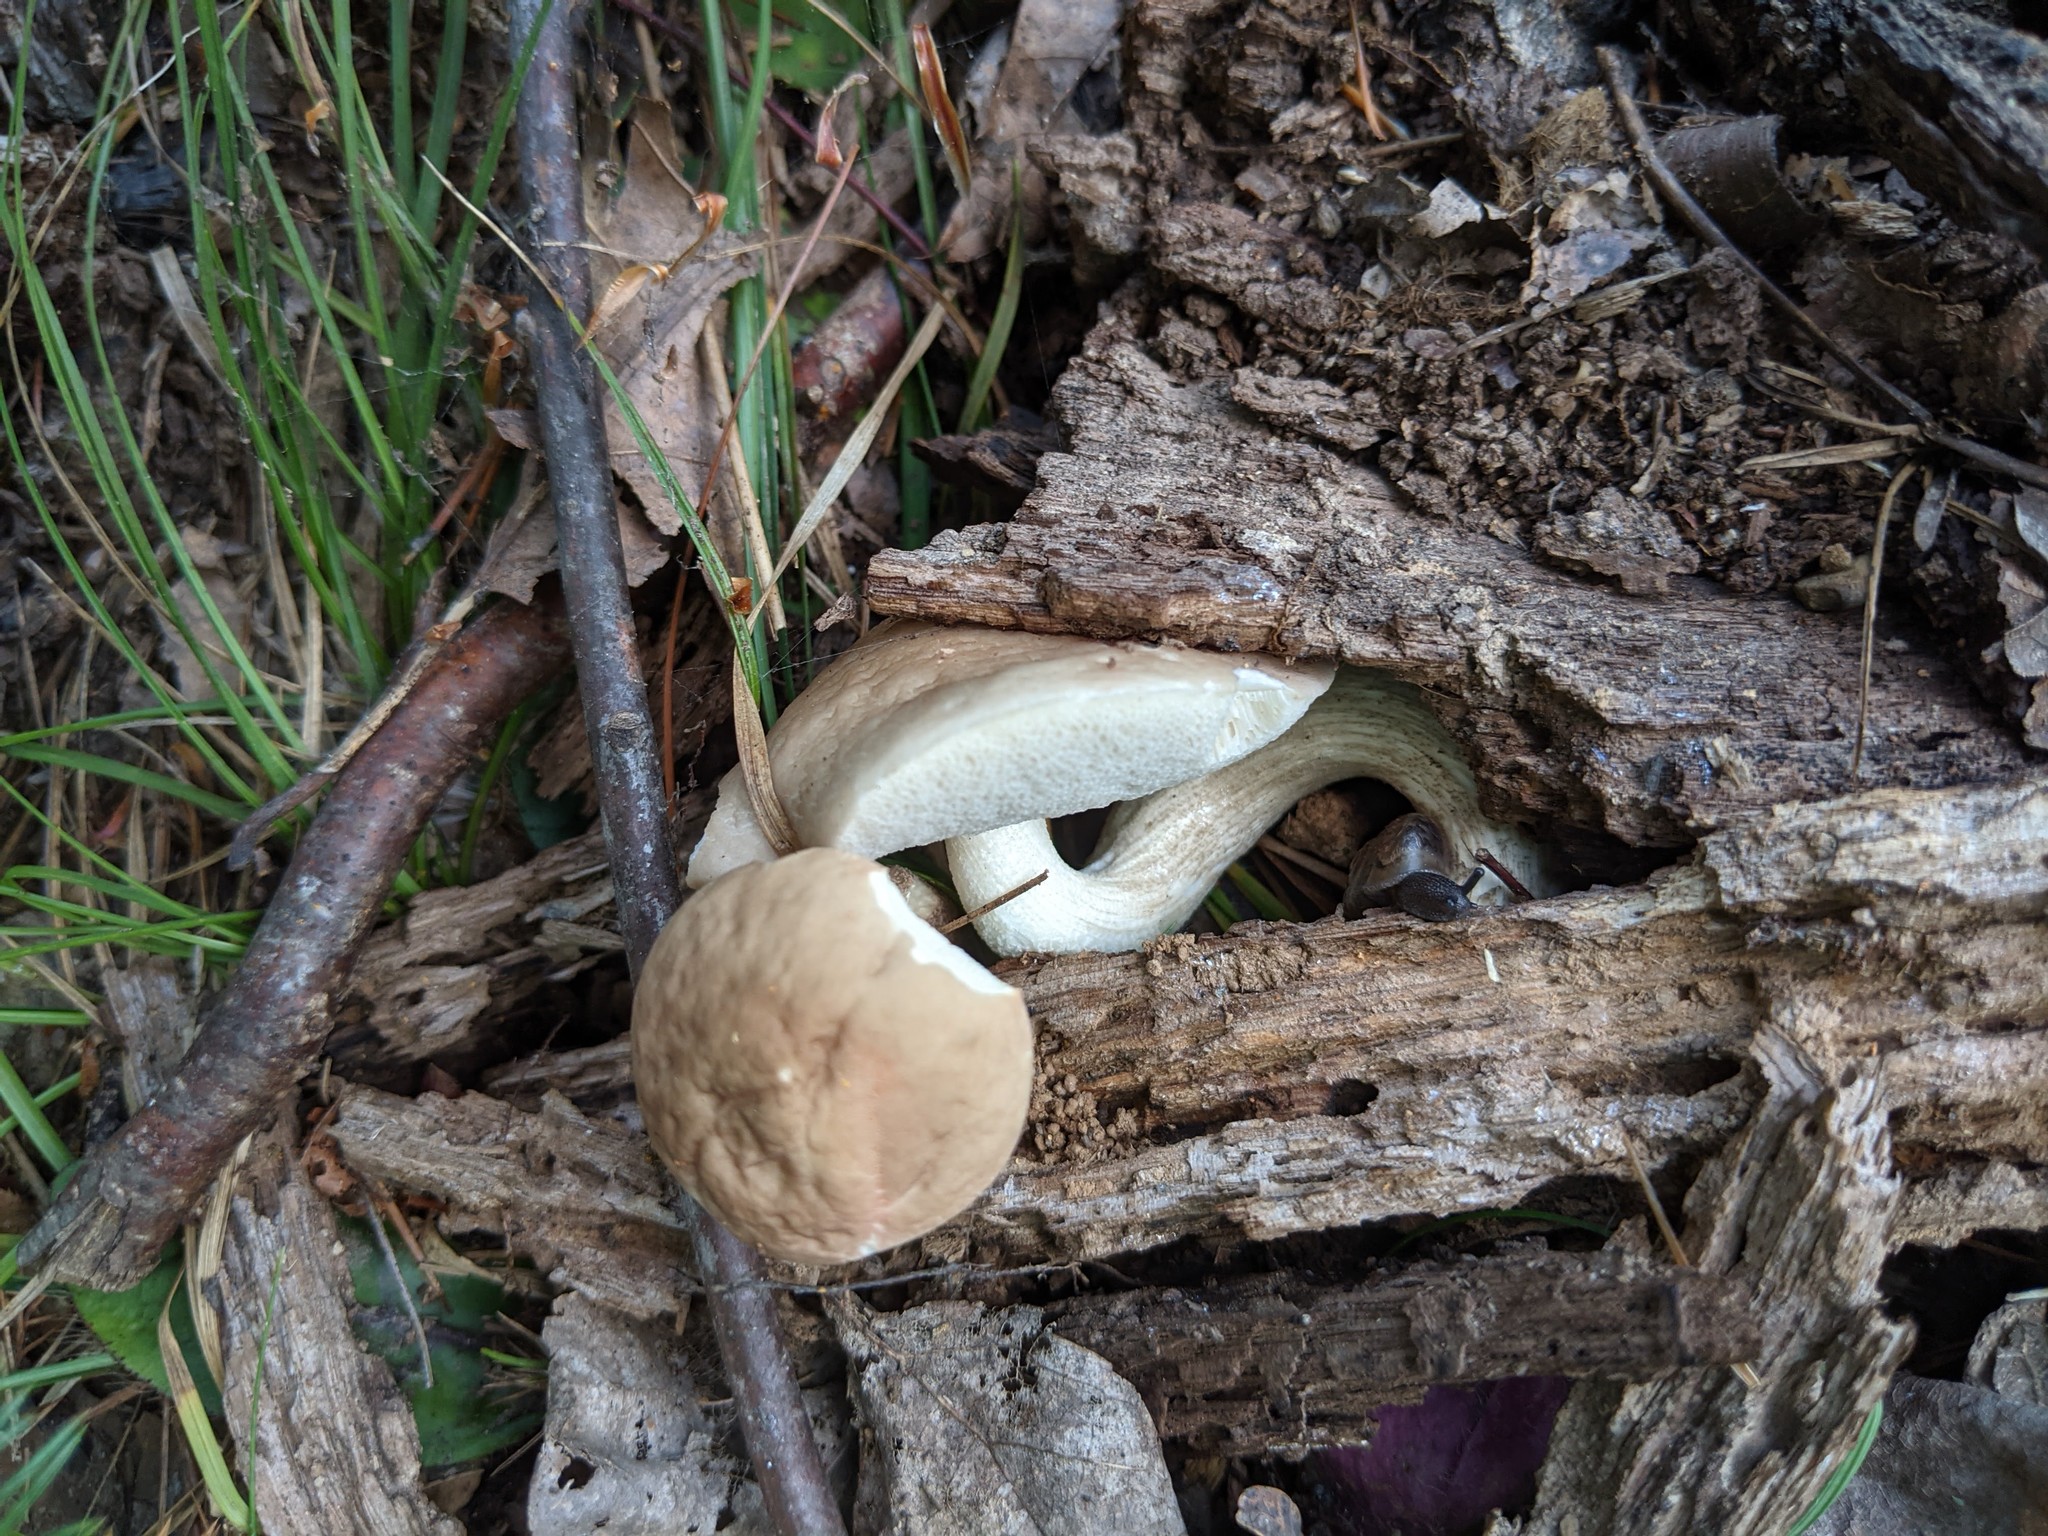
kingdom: Fungi
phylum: Basidiomycota
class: Agaricomycetes
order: Boletales
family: Boletaceae
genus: Leccinum
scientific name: Leccinum holopus
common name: Ghost bolete
